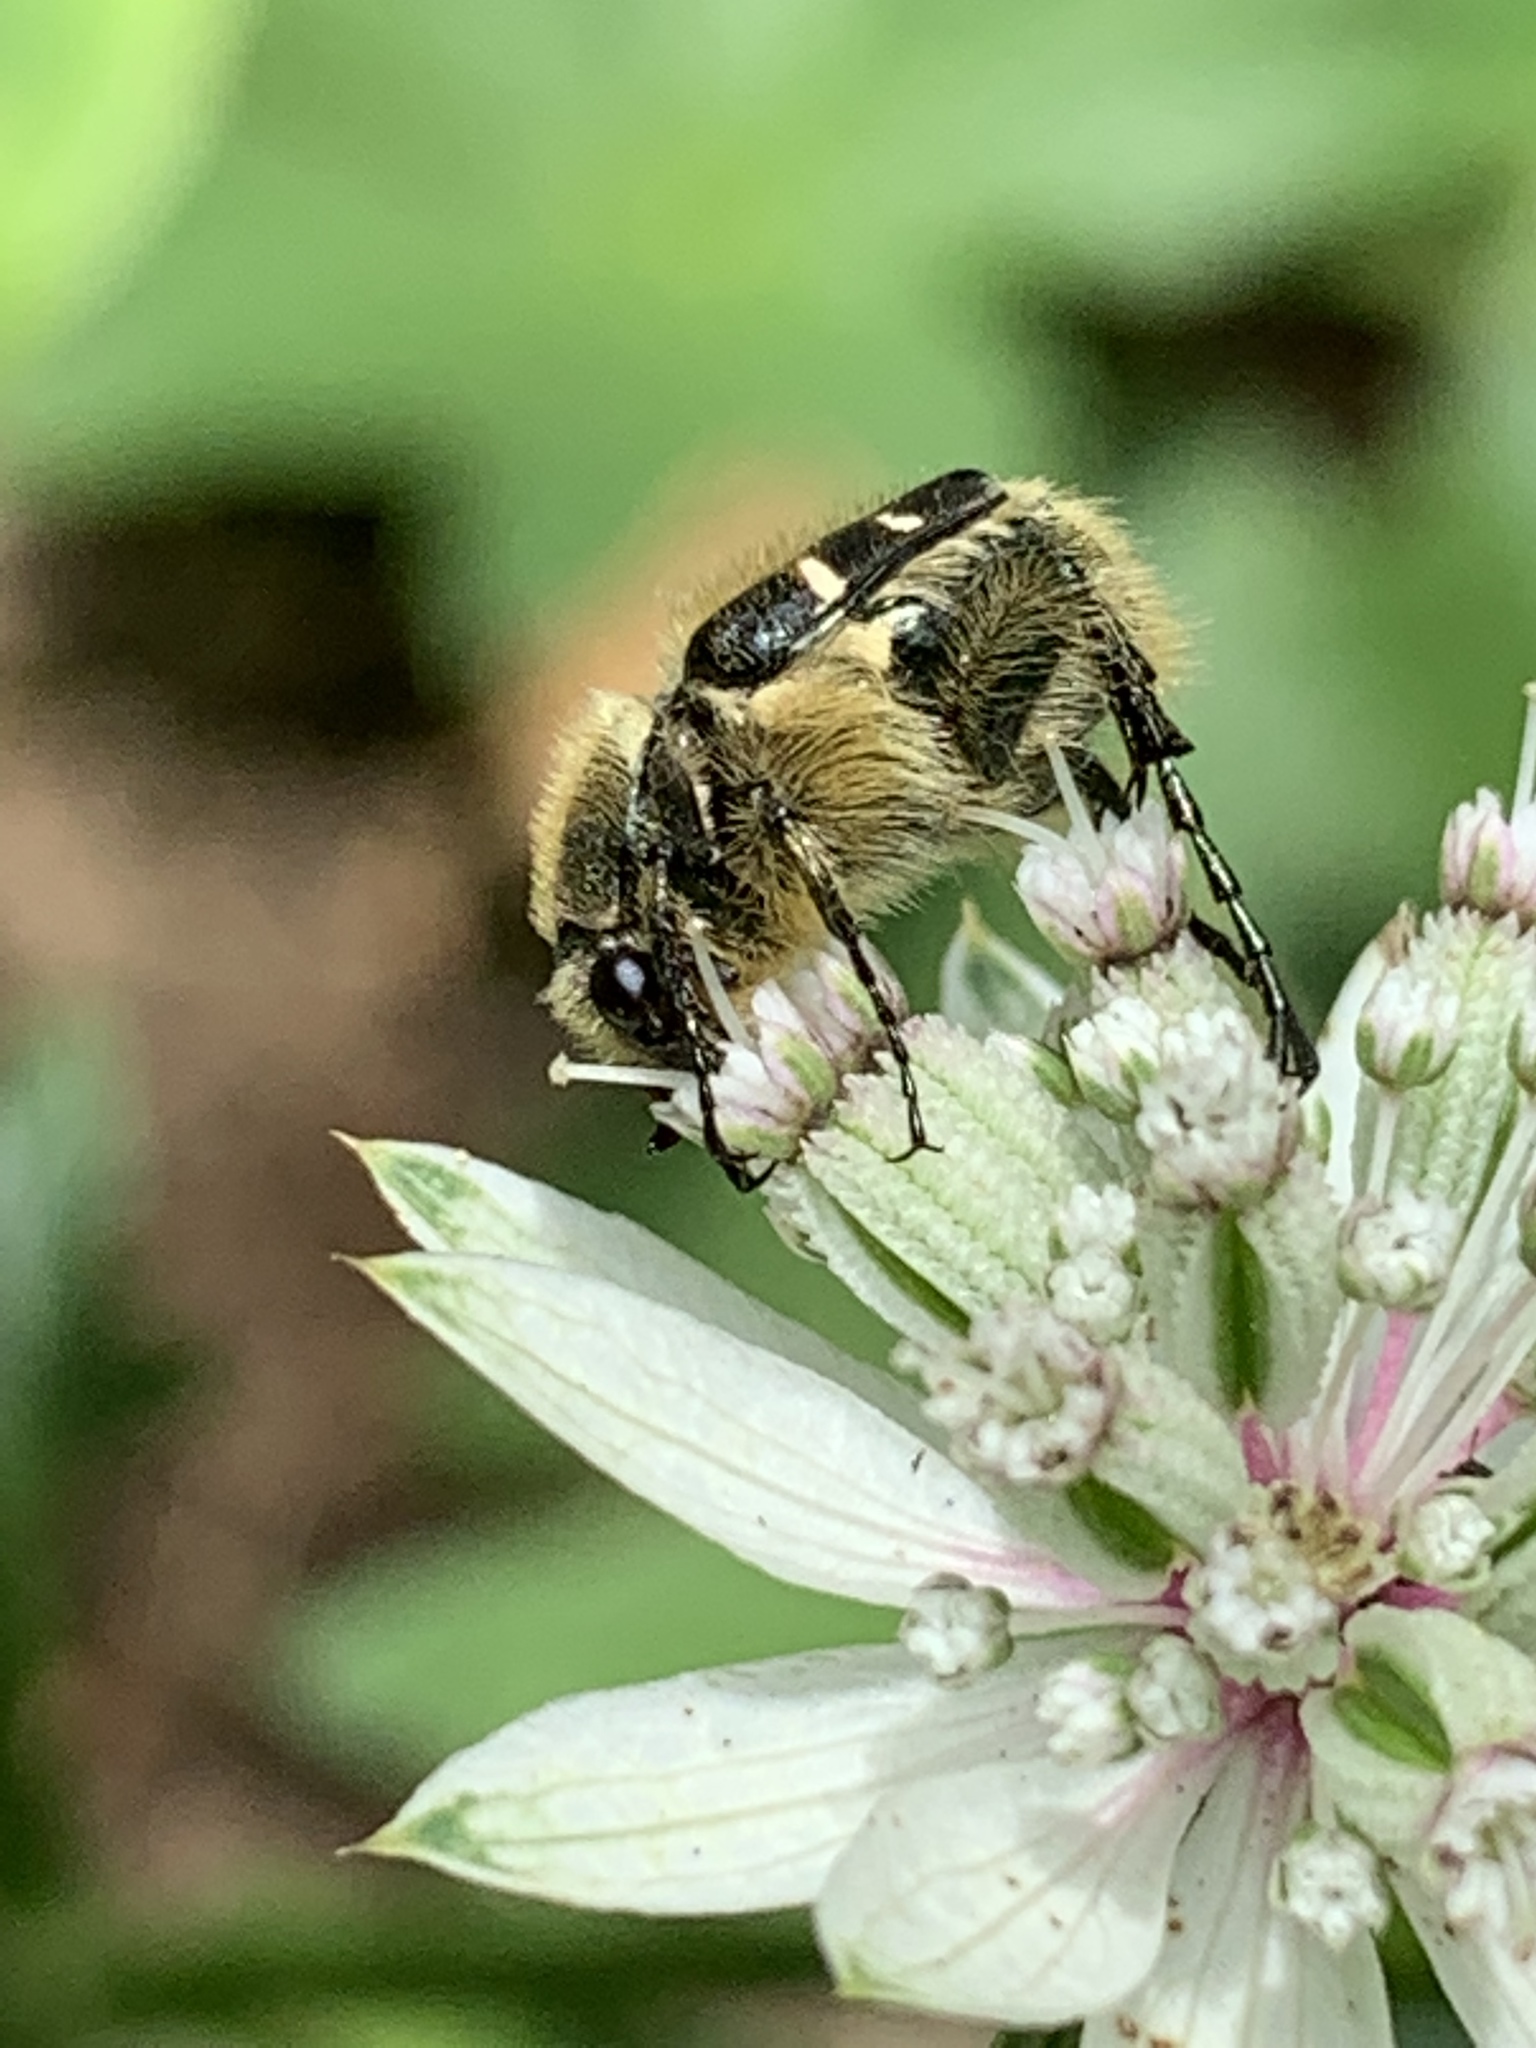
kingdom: Animalia
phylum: Arthropoda
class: Insecta
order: Coleoptera
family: Scarabaeidae
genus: Trichiotinus
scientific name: Trichiotinus affinis
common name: Hairy flower scarab
